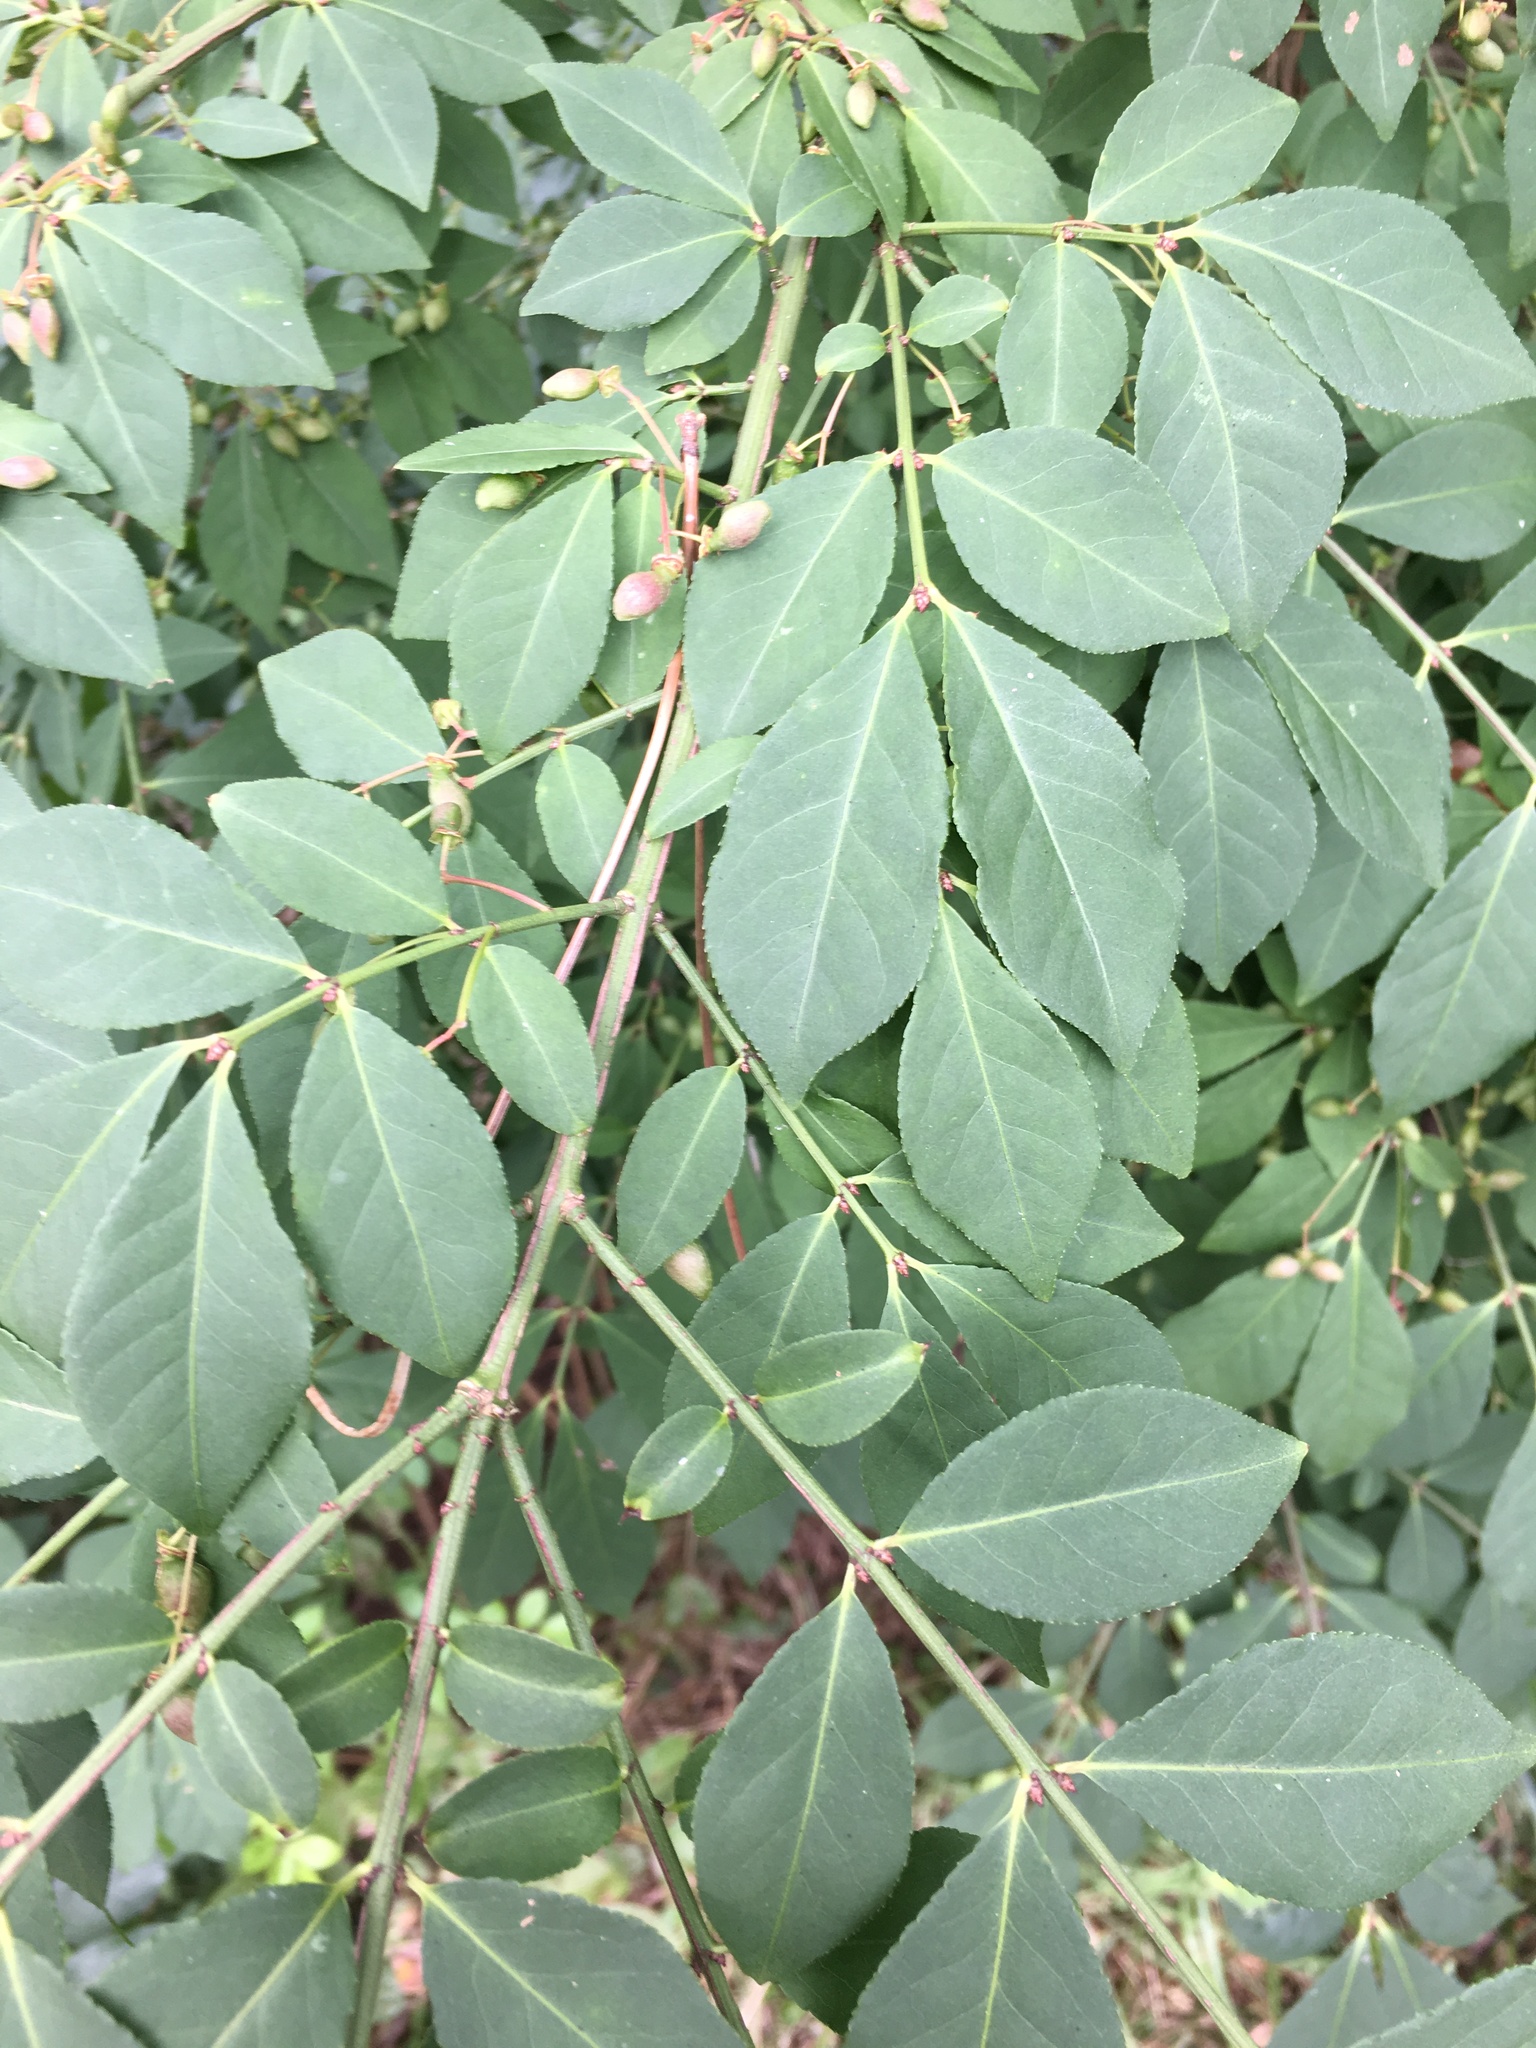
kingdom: Plantae
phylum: Tracheophyta
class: Magnoliopsida
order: Celastrales
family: Celastraceae
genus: Euonymus
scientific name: Euonymus alatus
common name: Winged euonymus
